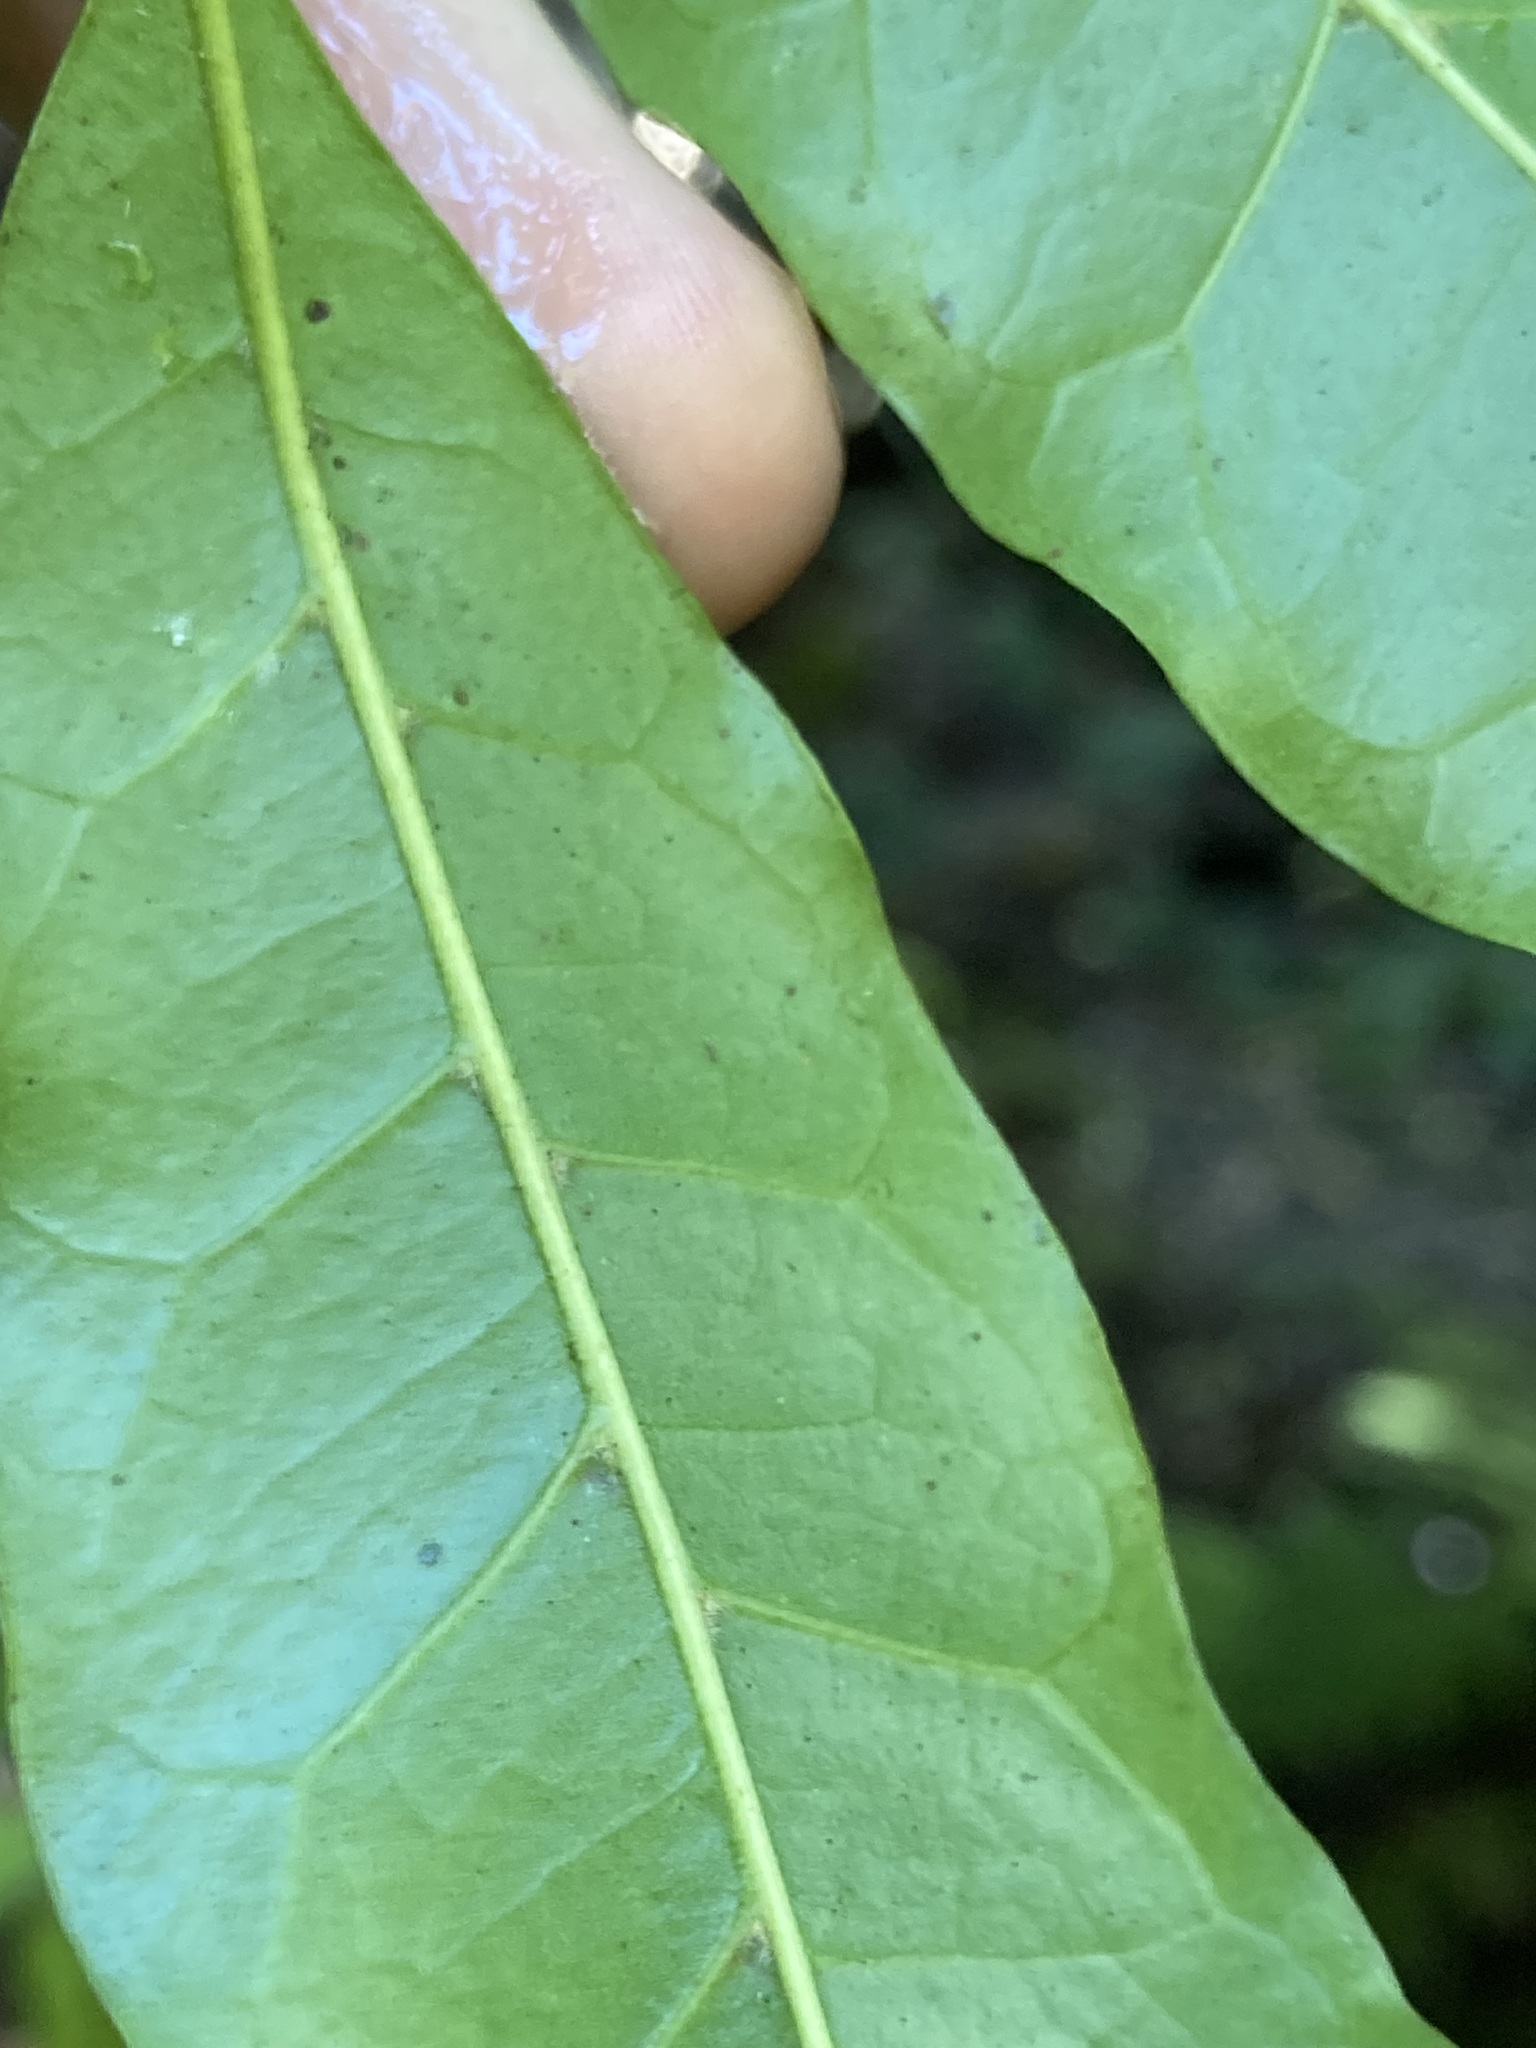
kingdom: Plantae
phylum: Tracheophyta
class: Magnoliopsida
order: Sapindales
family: Meliaceae
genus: Synoum
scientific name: Synoum glandulosum
